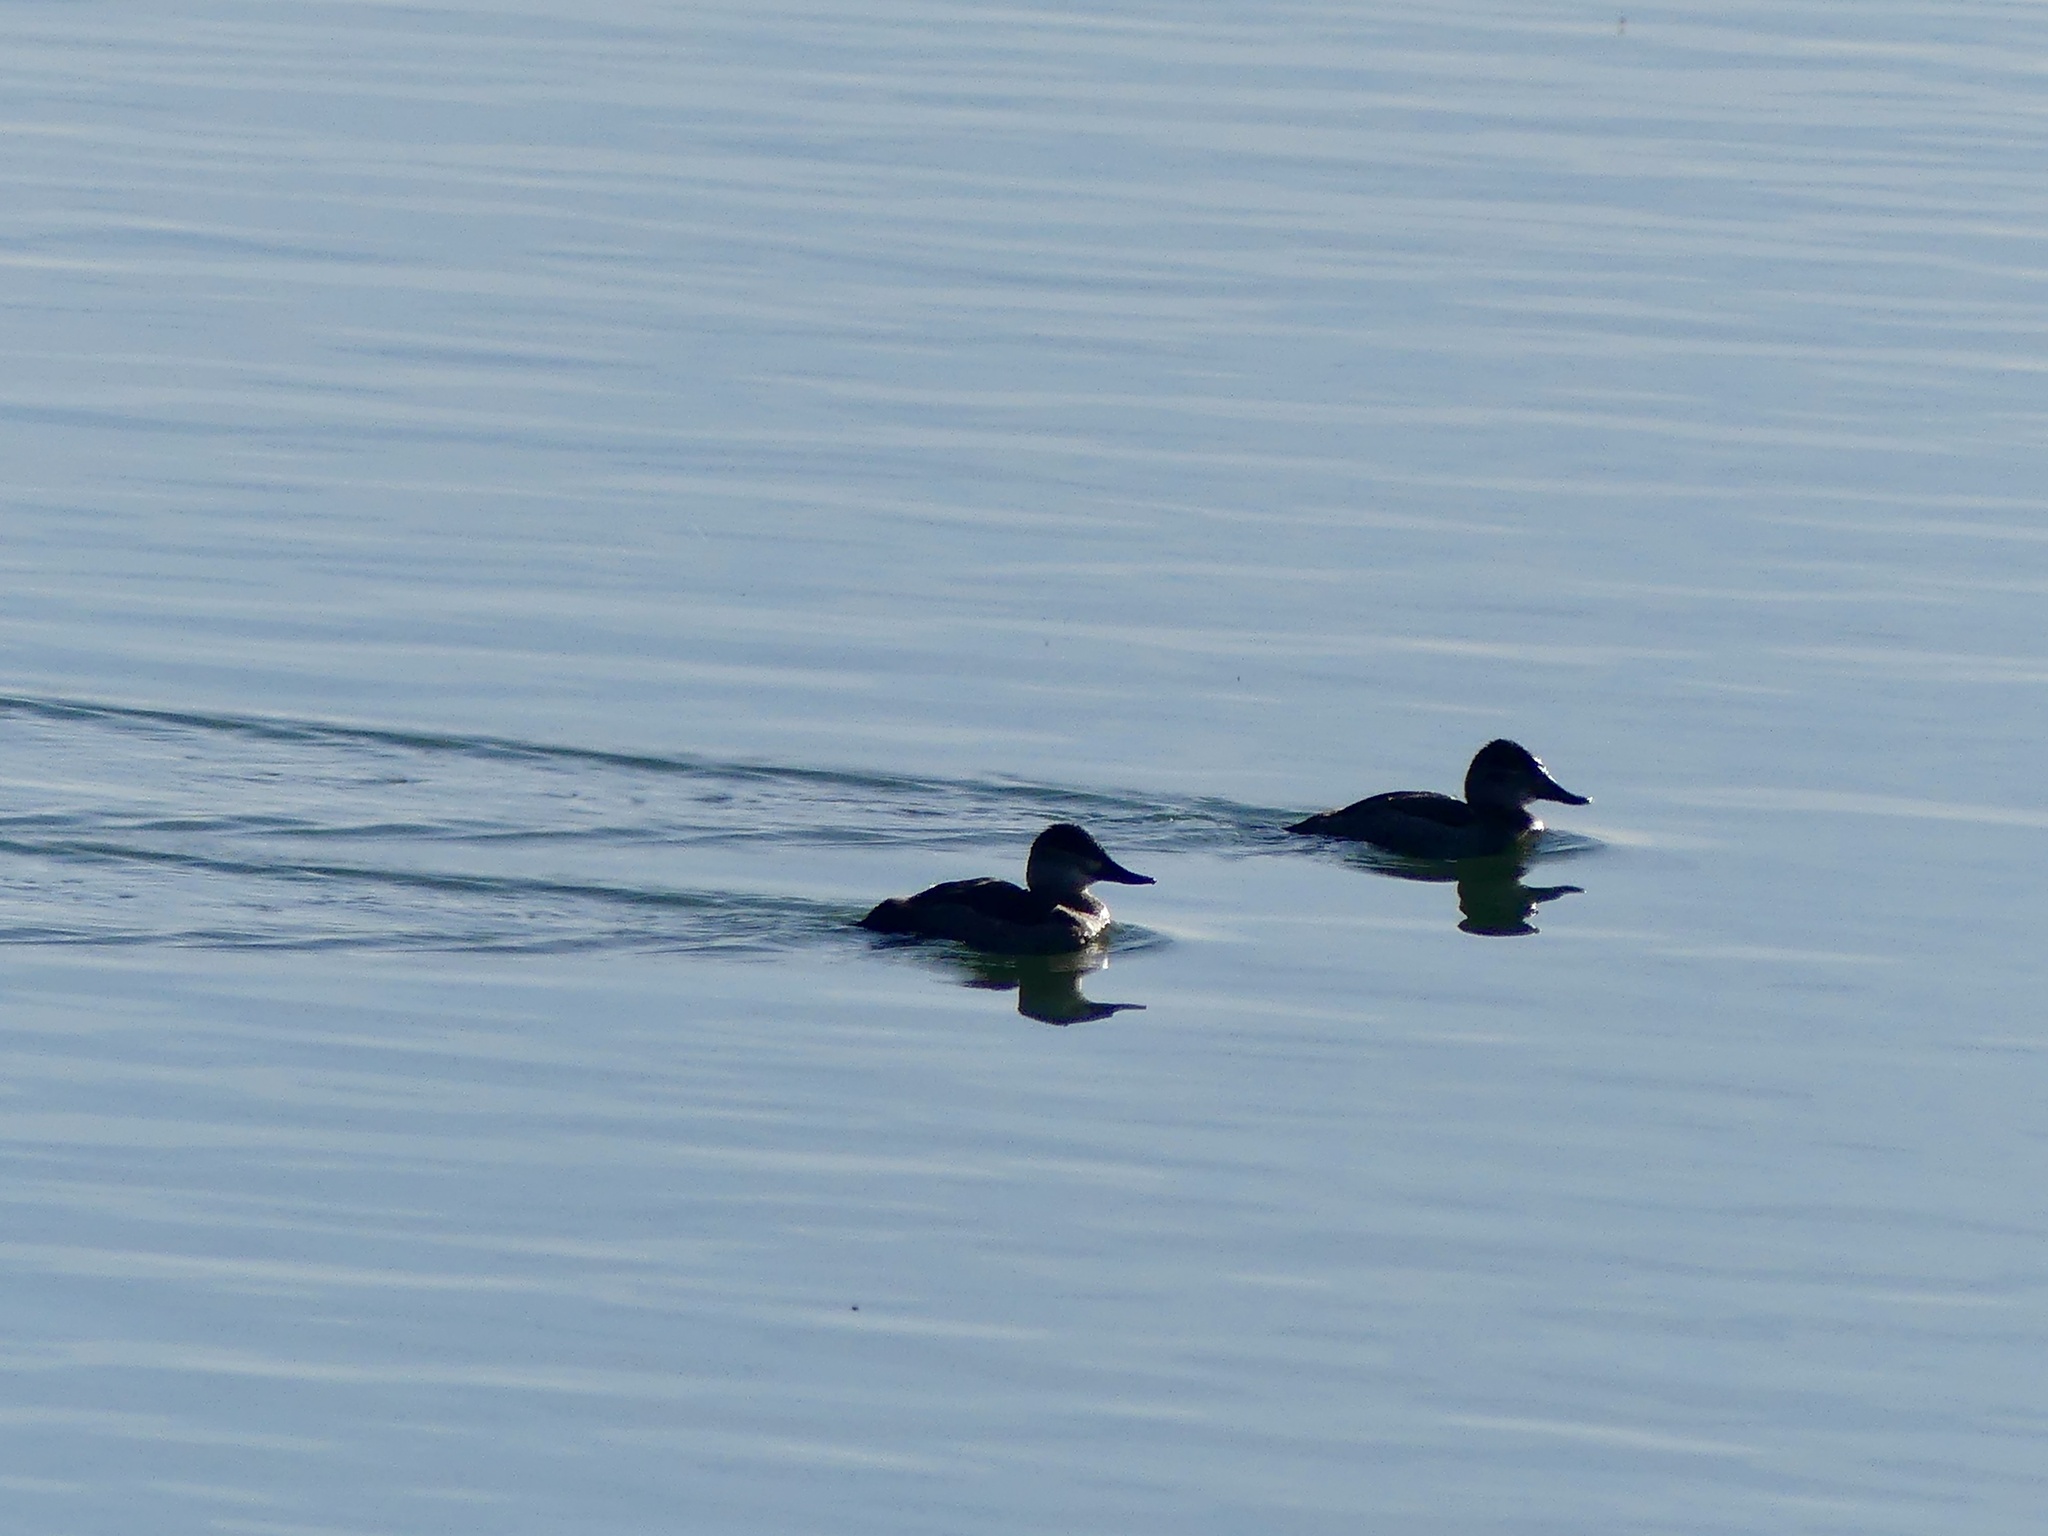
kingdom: Animalia
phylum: Chordata
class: Aves
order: Anseriformes
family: Anatidae
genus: Oxyura
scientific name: Oxyura jamaicensis
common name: Ruddy duck
